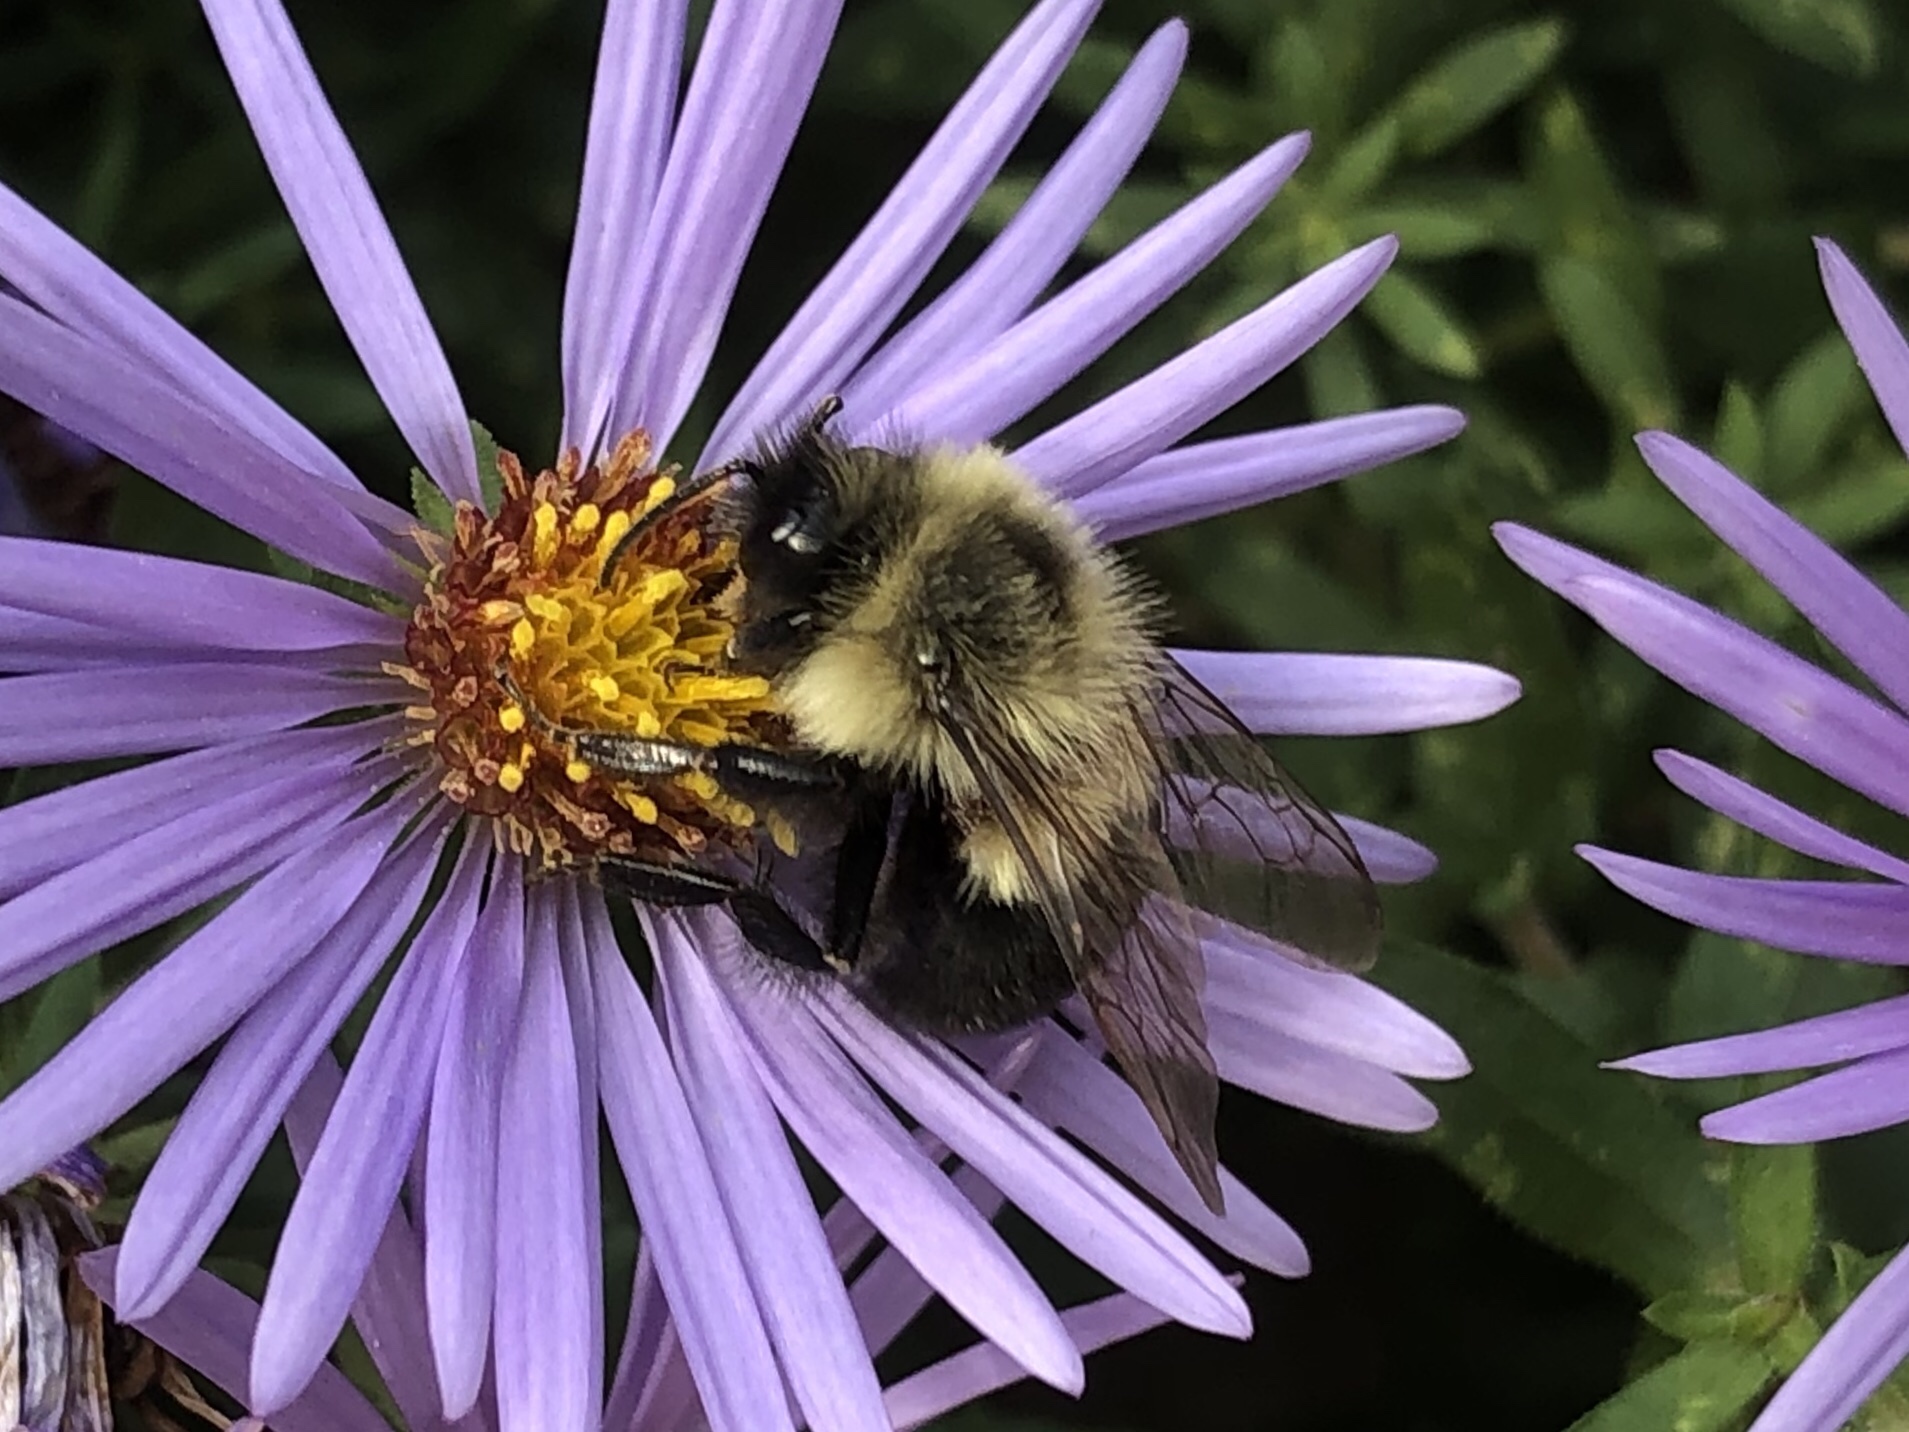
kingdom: Animalia
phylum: Arthropoda
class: Insecta
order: Hymenoptera
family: Apidae
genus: Bombus
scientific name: Bombus impatiens
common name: Common eastern bumble bee
